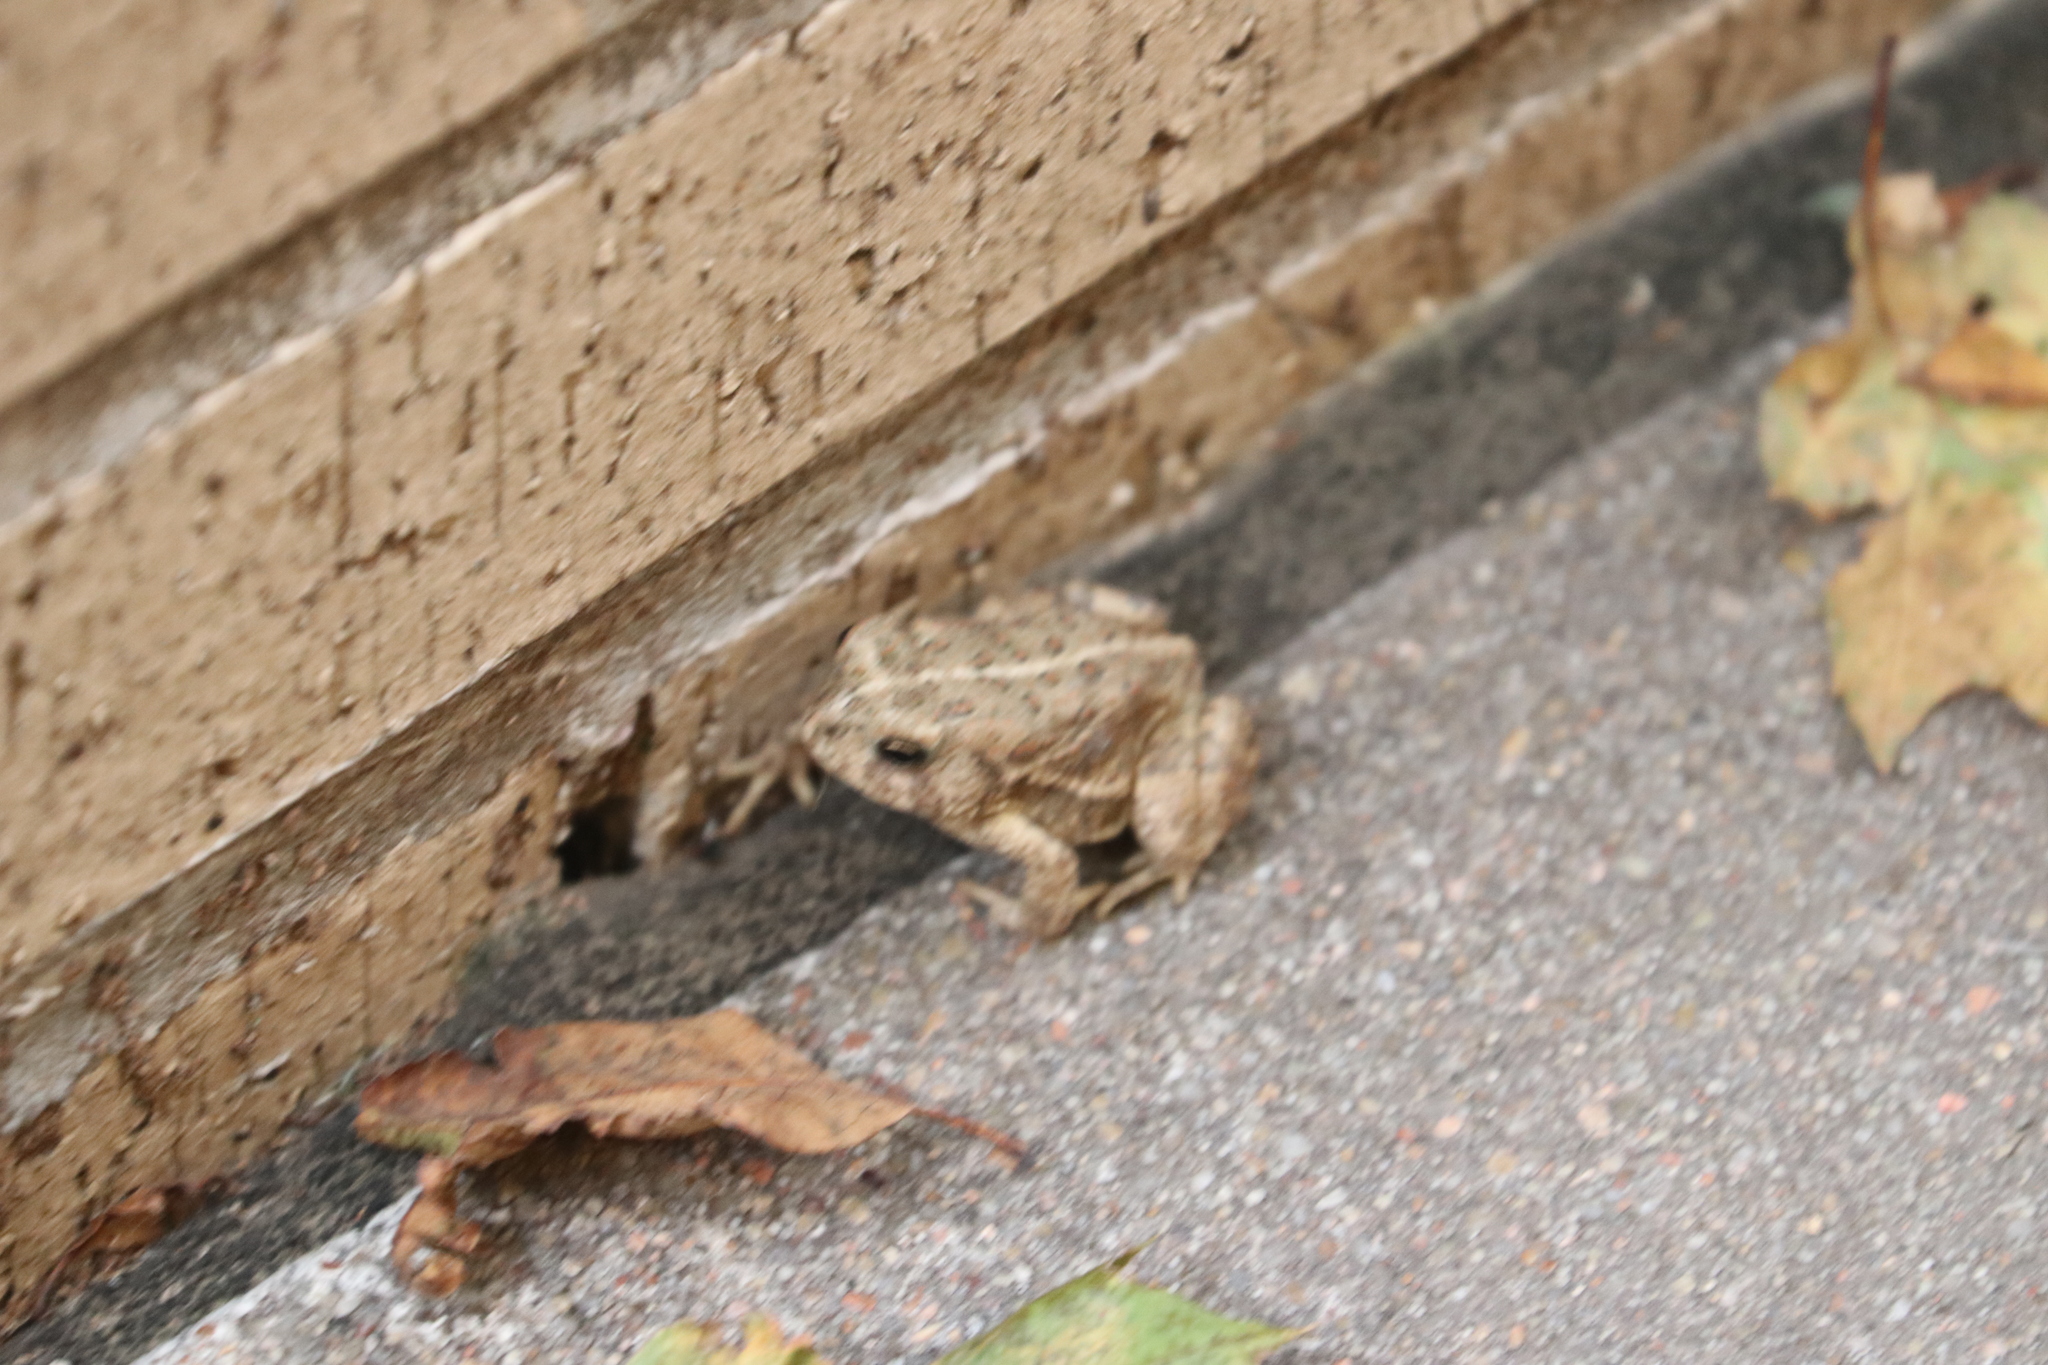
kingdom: Animalia
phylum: Chordata
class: Amphibia
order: Anura
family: Bufonidae
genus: Anaxyrus
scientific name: Anaxyrus woodhousii
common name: Woodhouse's toad
